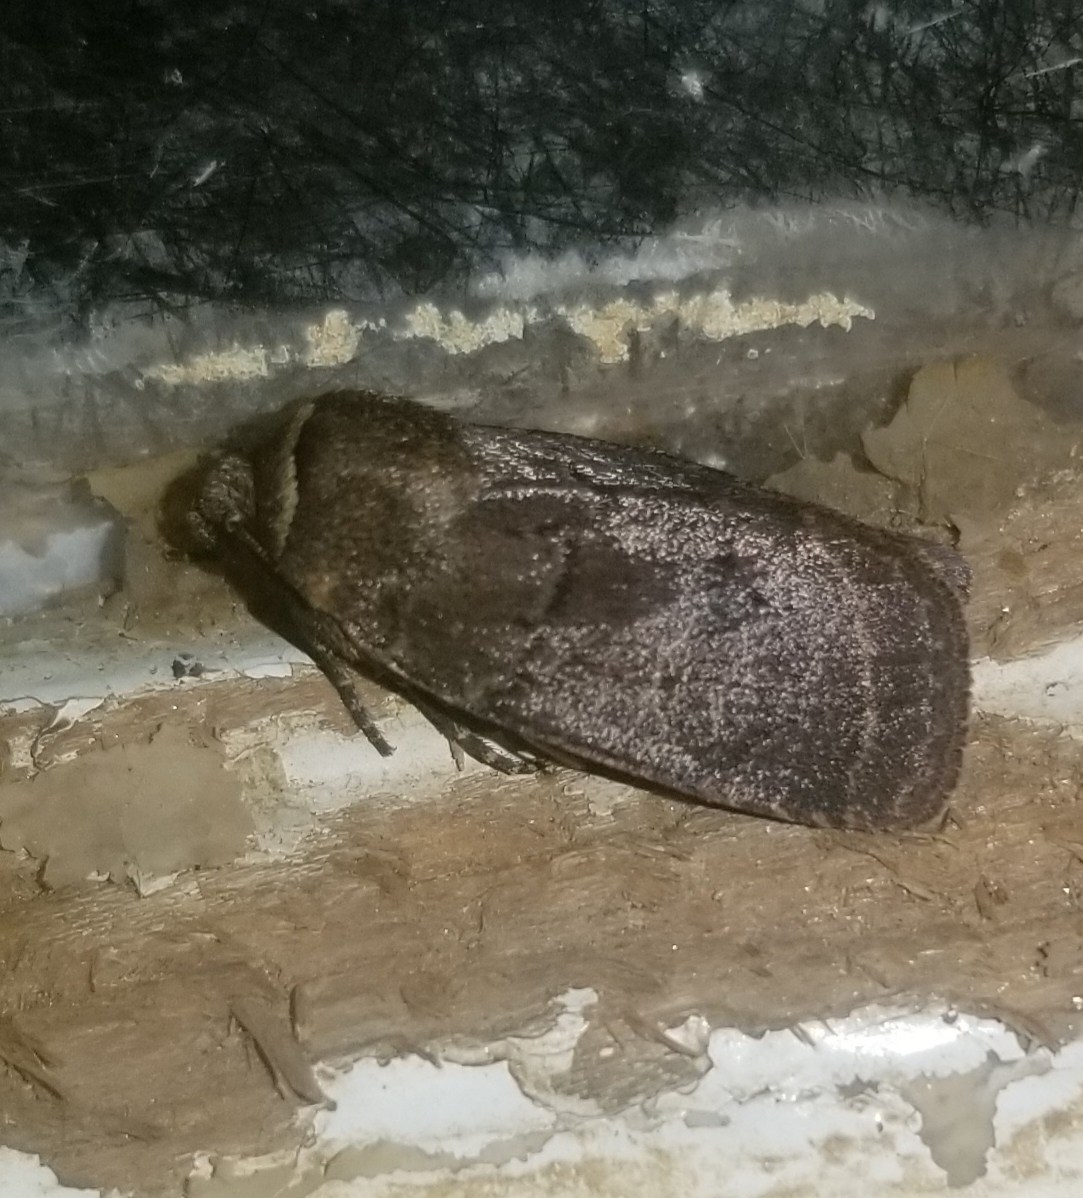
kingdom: Animalia
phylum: Arthropoda
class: Insecta
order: Lepidoptera
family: Noctuidae
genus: Athetis
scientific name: Athetis tarda
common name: Slowpoke moth
